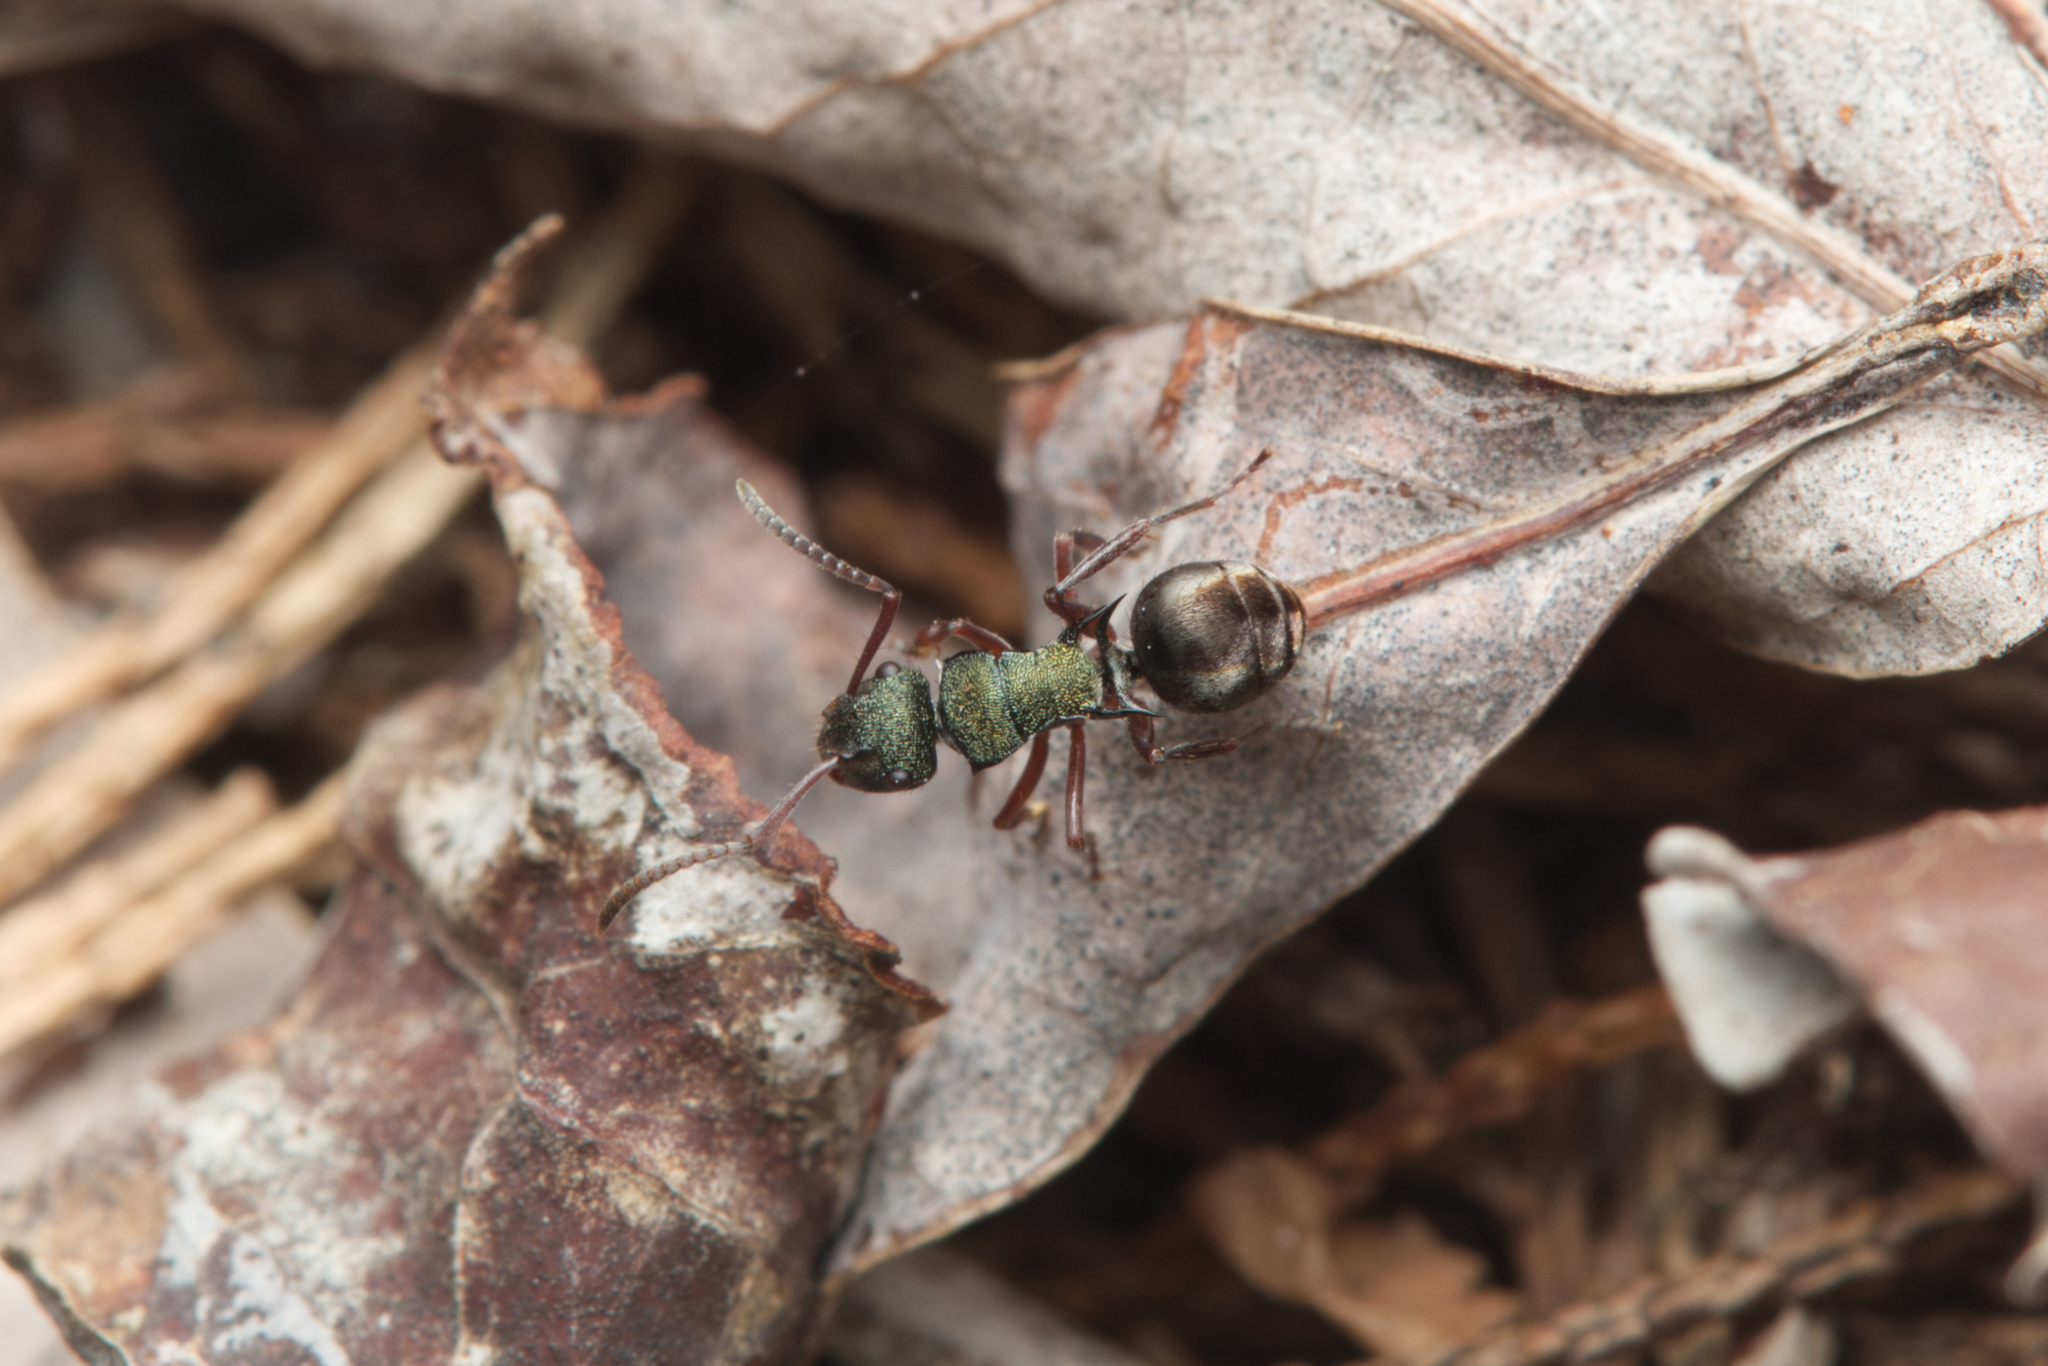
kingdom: Animalia
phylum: Arthropoda
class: Insecta
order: Hymenoptera
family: Formicidae
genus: Polyrhachis
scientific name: Polyrhachis hookeri
